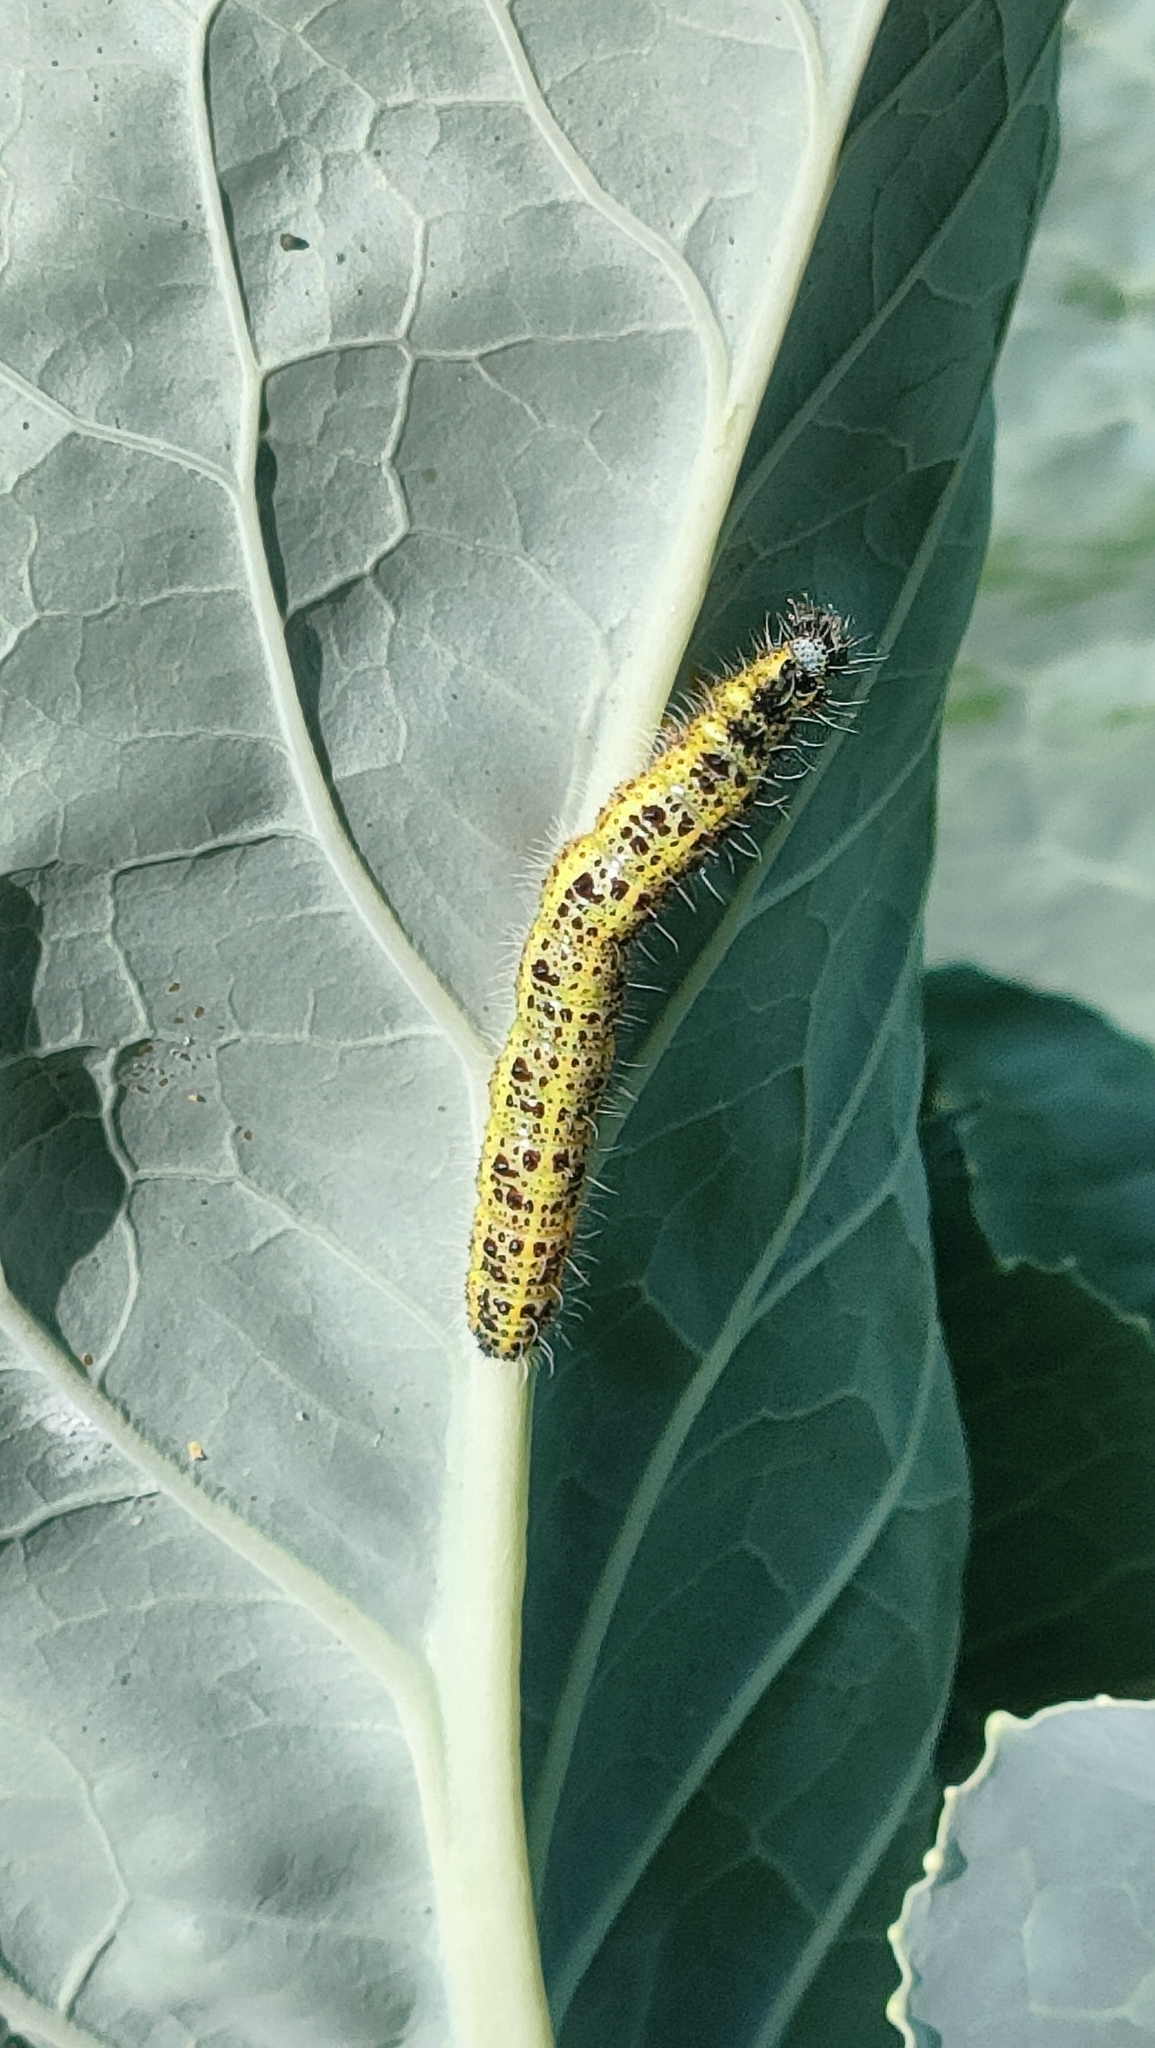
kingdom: Animalia
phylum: Arthropoda
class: Insecta
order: Lepidoptera
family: Pieridae
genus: Pieris
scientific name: Pieris brassicae
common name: Large white
